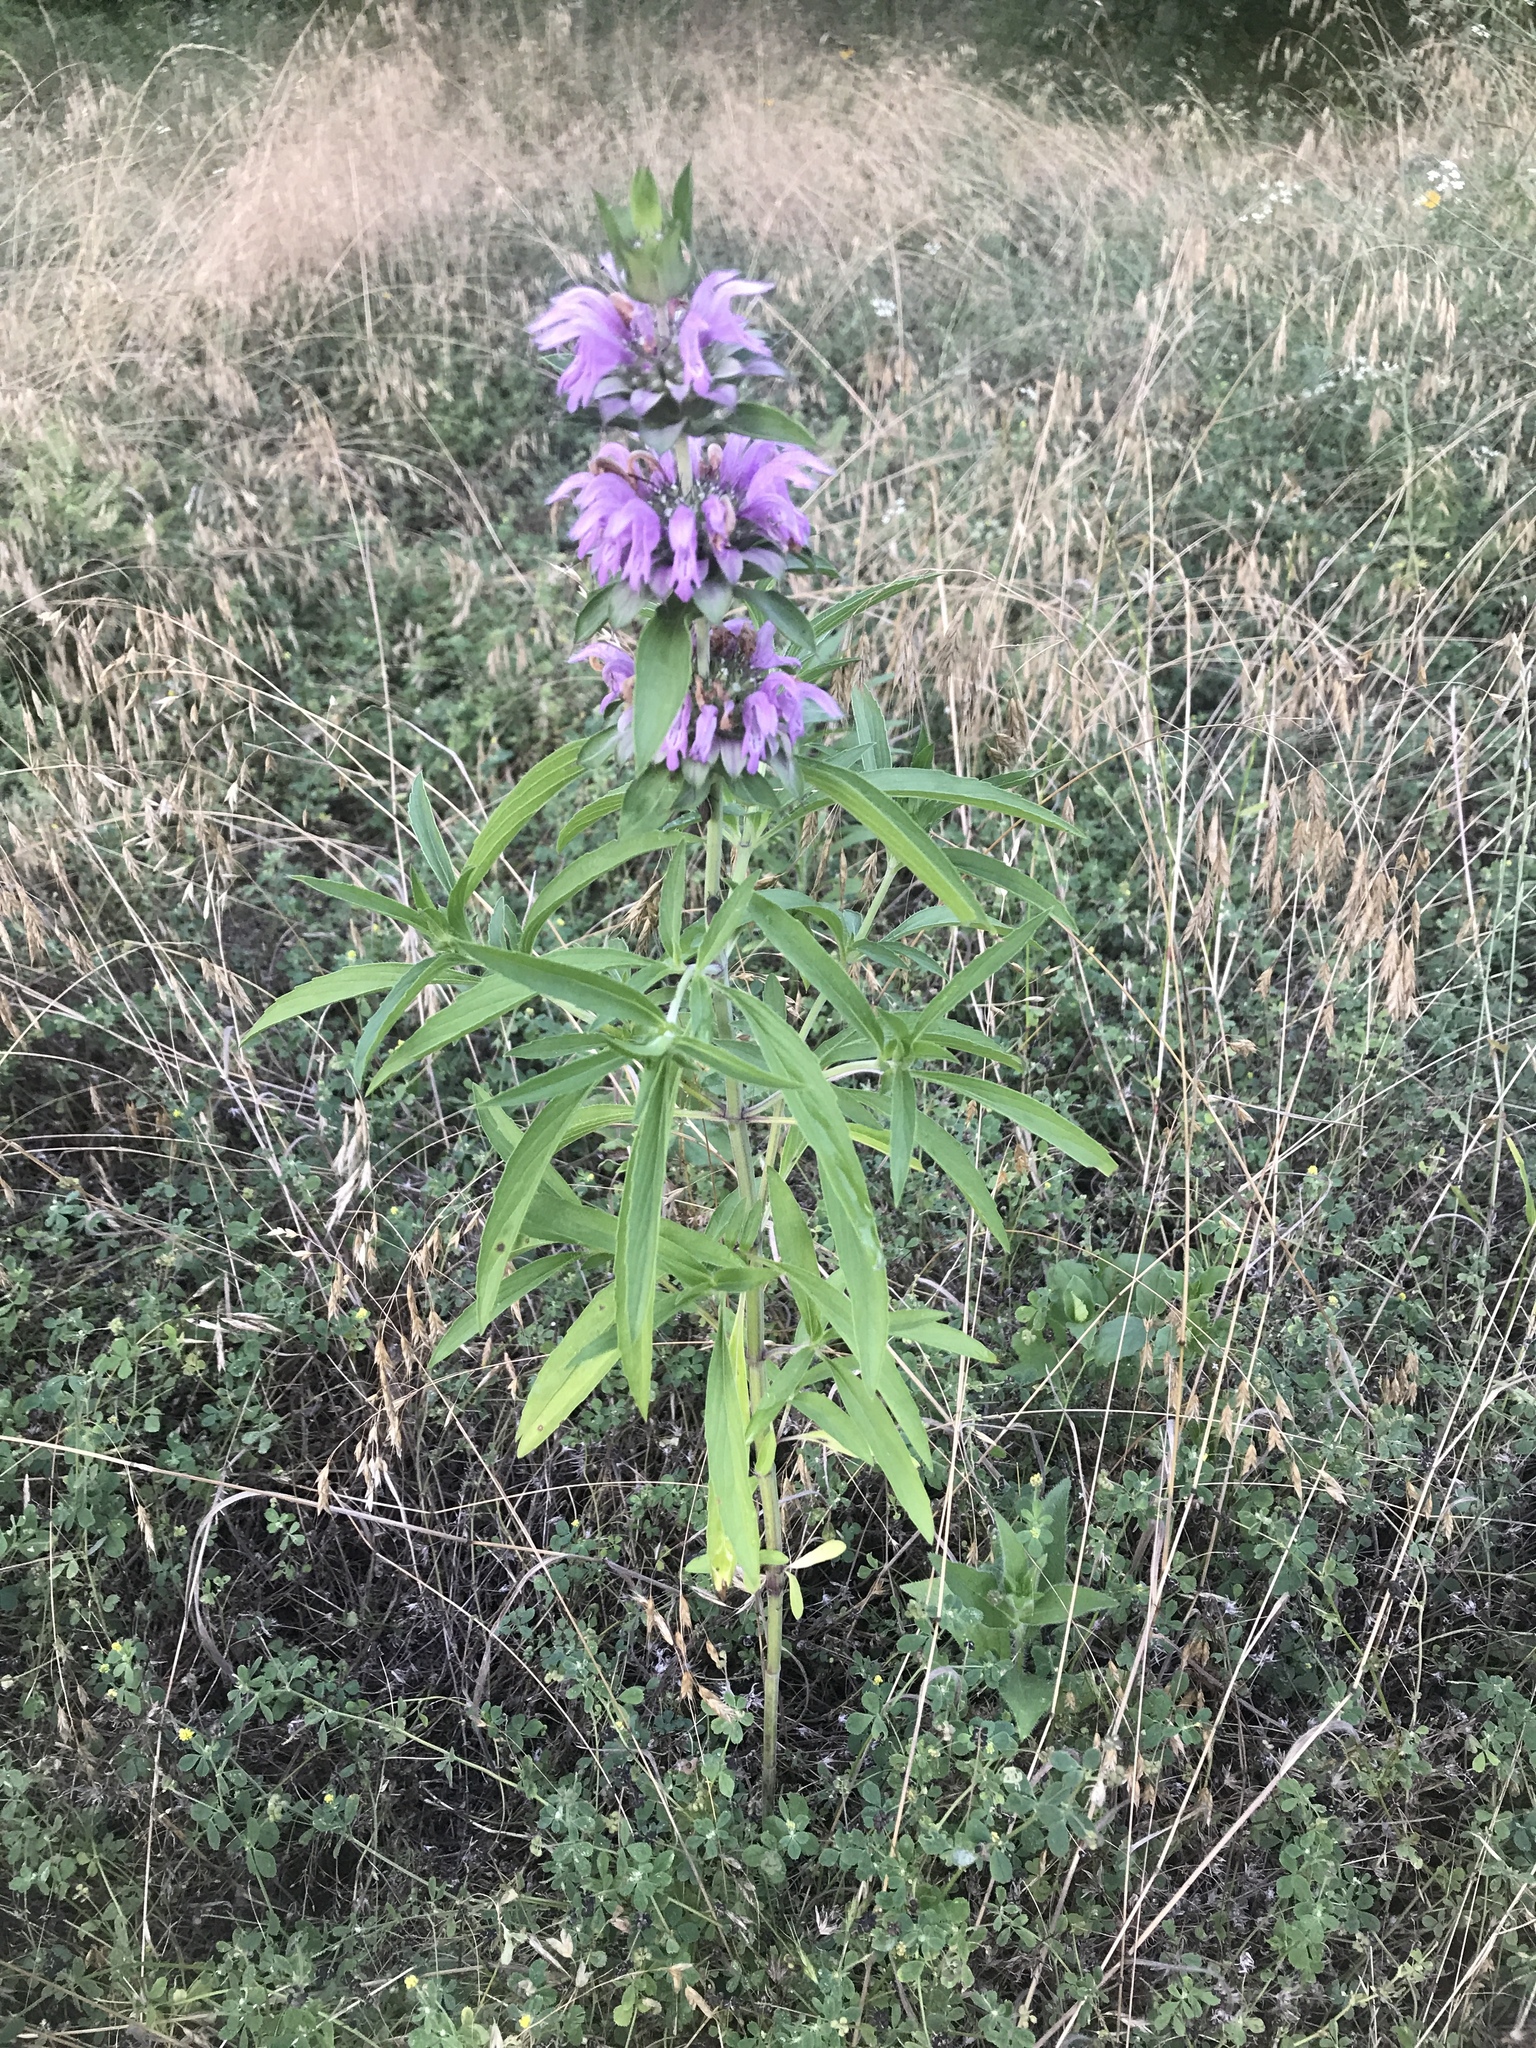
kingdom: Plantae
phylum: Tracheophyta
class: Magnoliopsida
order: Lamiales
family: Lamiaceae
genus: Monarda
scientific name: Monarda citriodora
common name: Lemon beebalm
